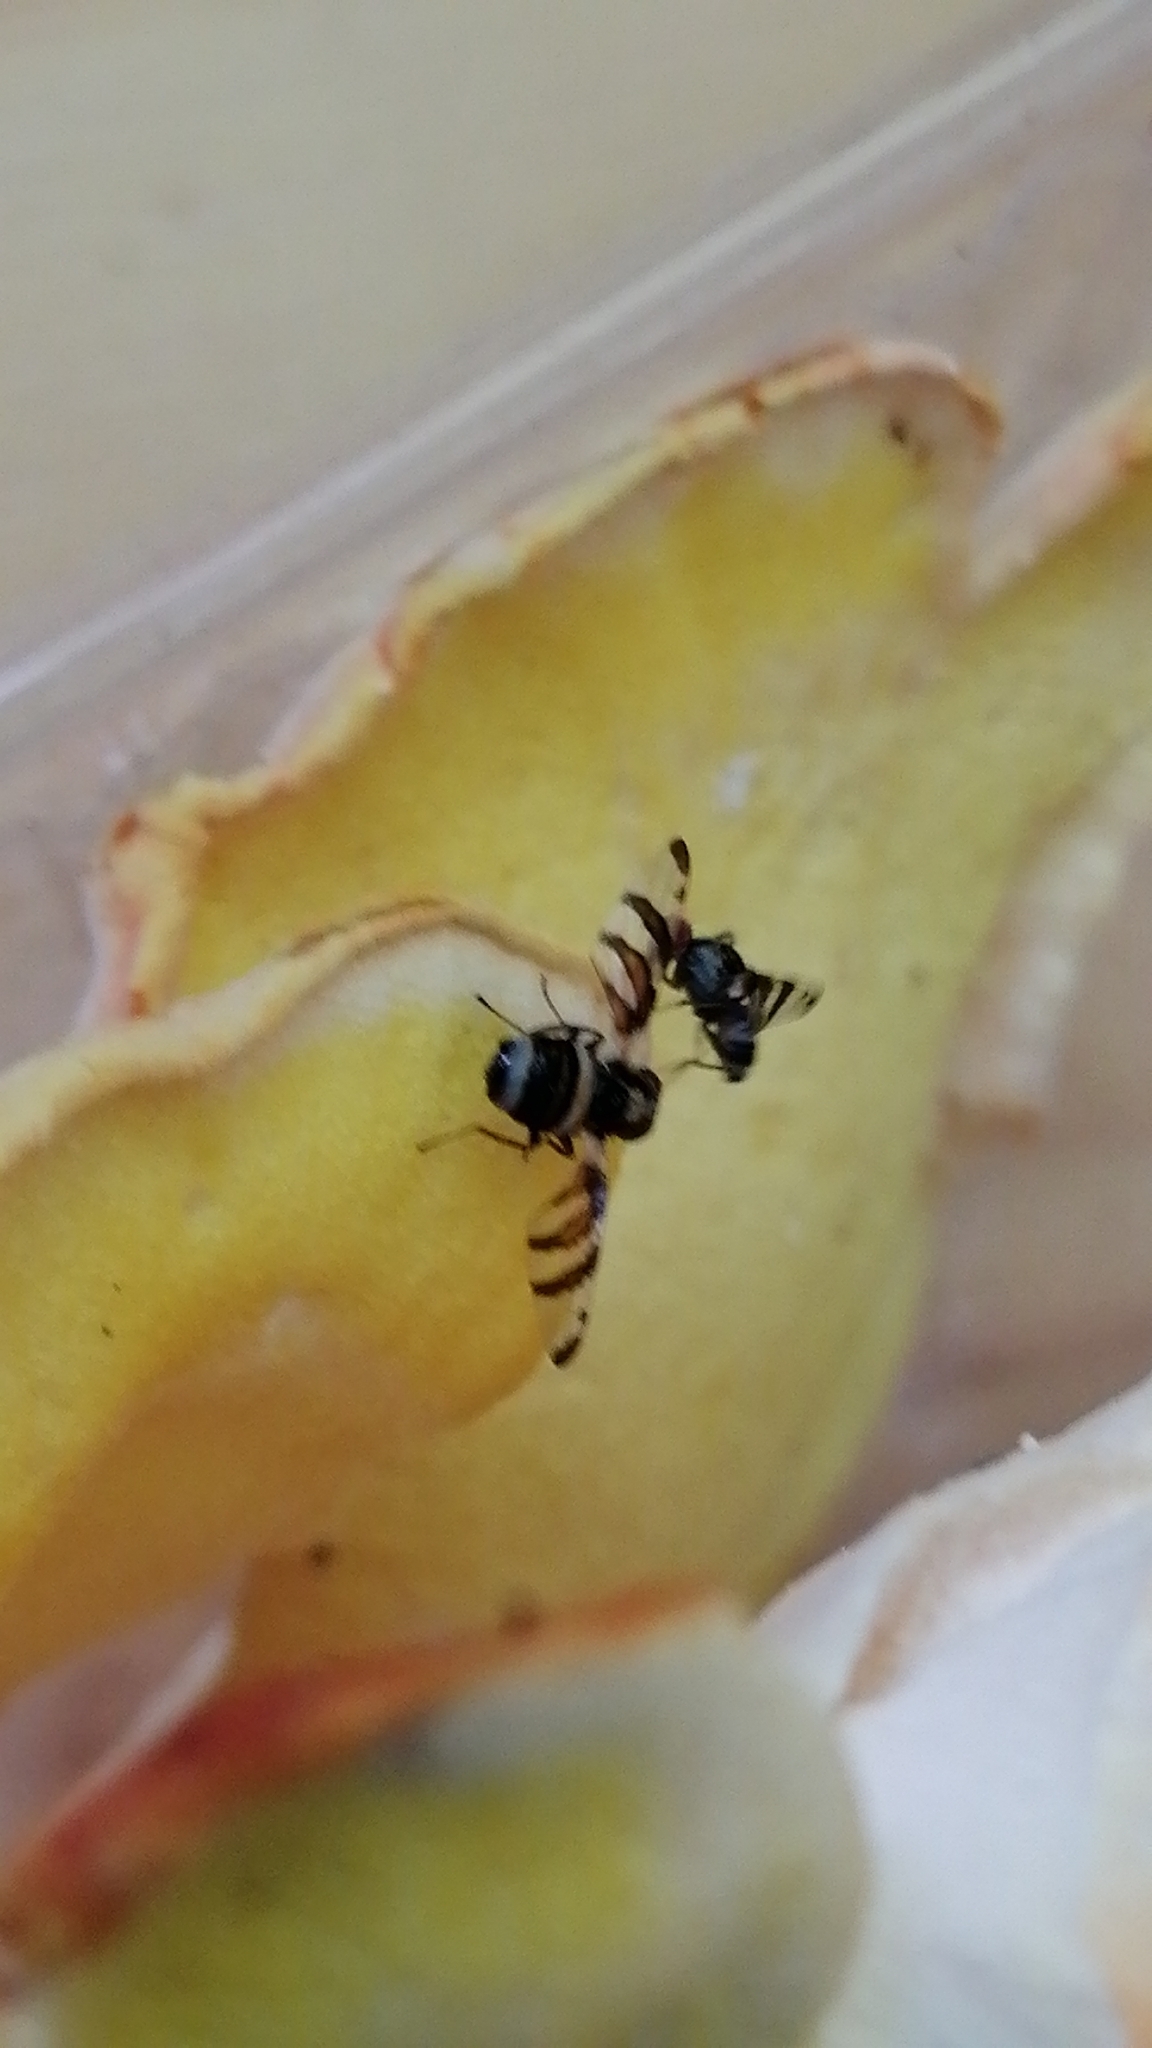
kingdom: Animalia
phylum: Arthropoda
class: Insecta
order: Diptera
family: Ulidiidae
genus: Myennis
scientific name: Myennis octopunctata
